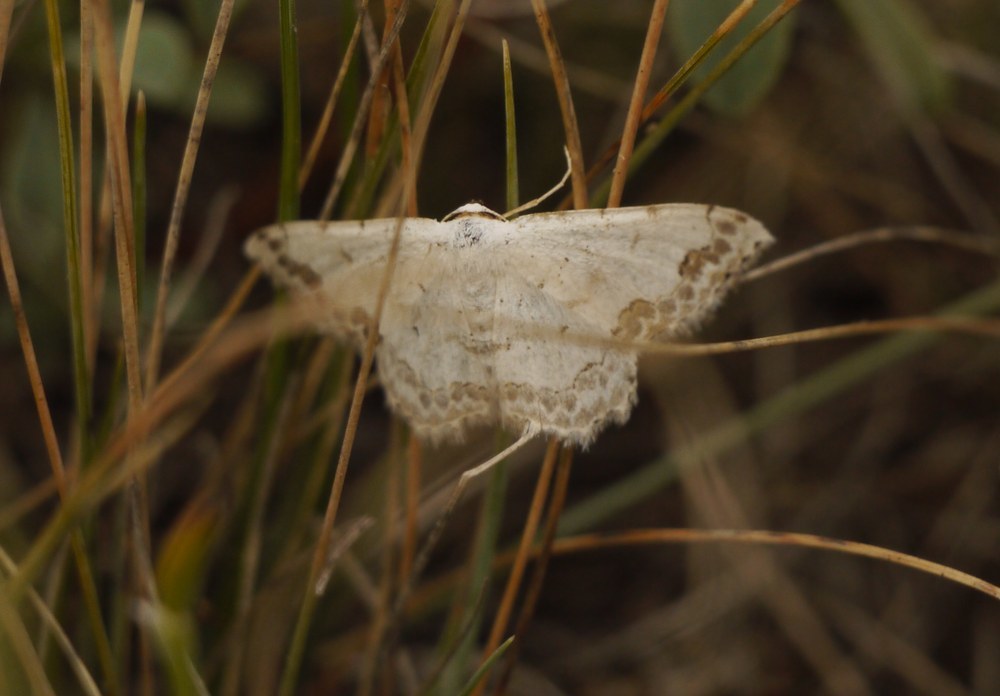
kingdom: Animalia
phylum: Arthropoda
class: Insecta
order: Lepidoptera
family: Geometridae
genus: Scopula
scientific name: Scopula ornata
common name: Lace border
